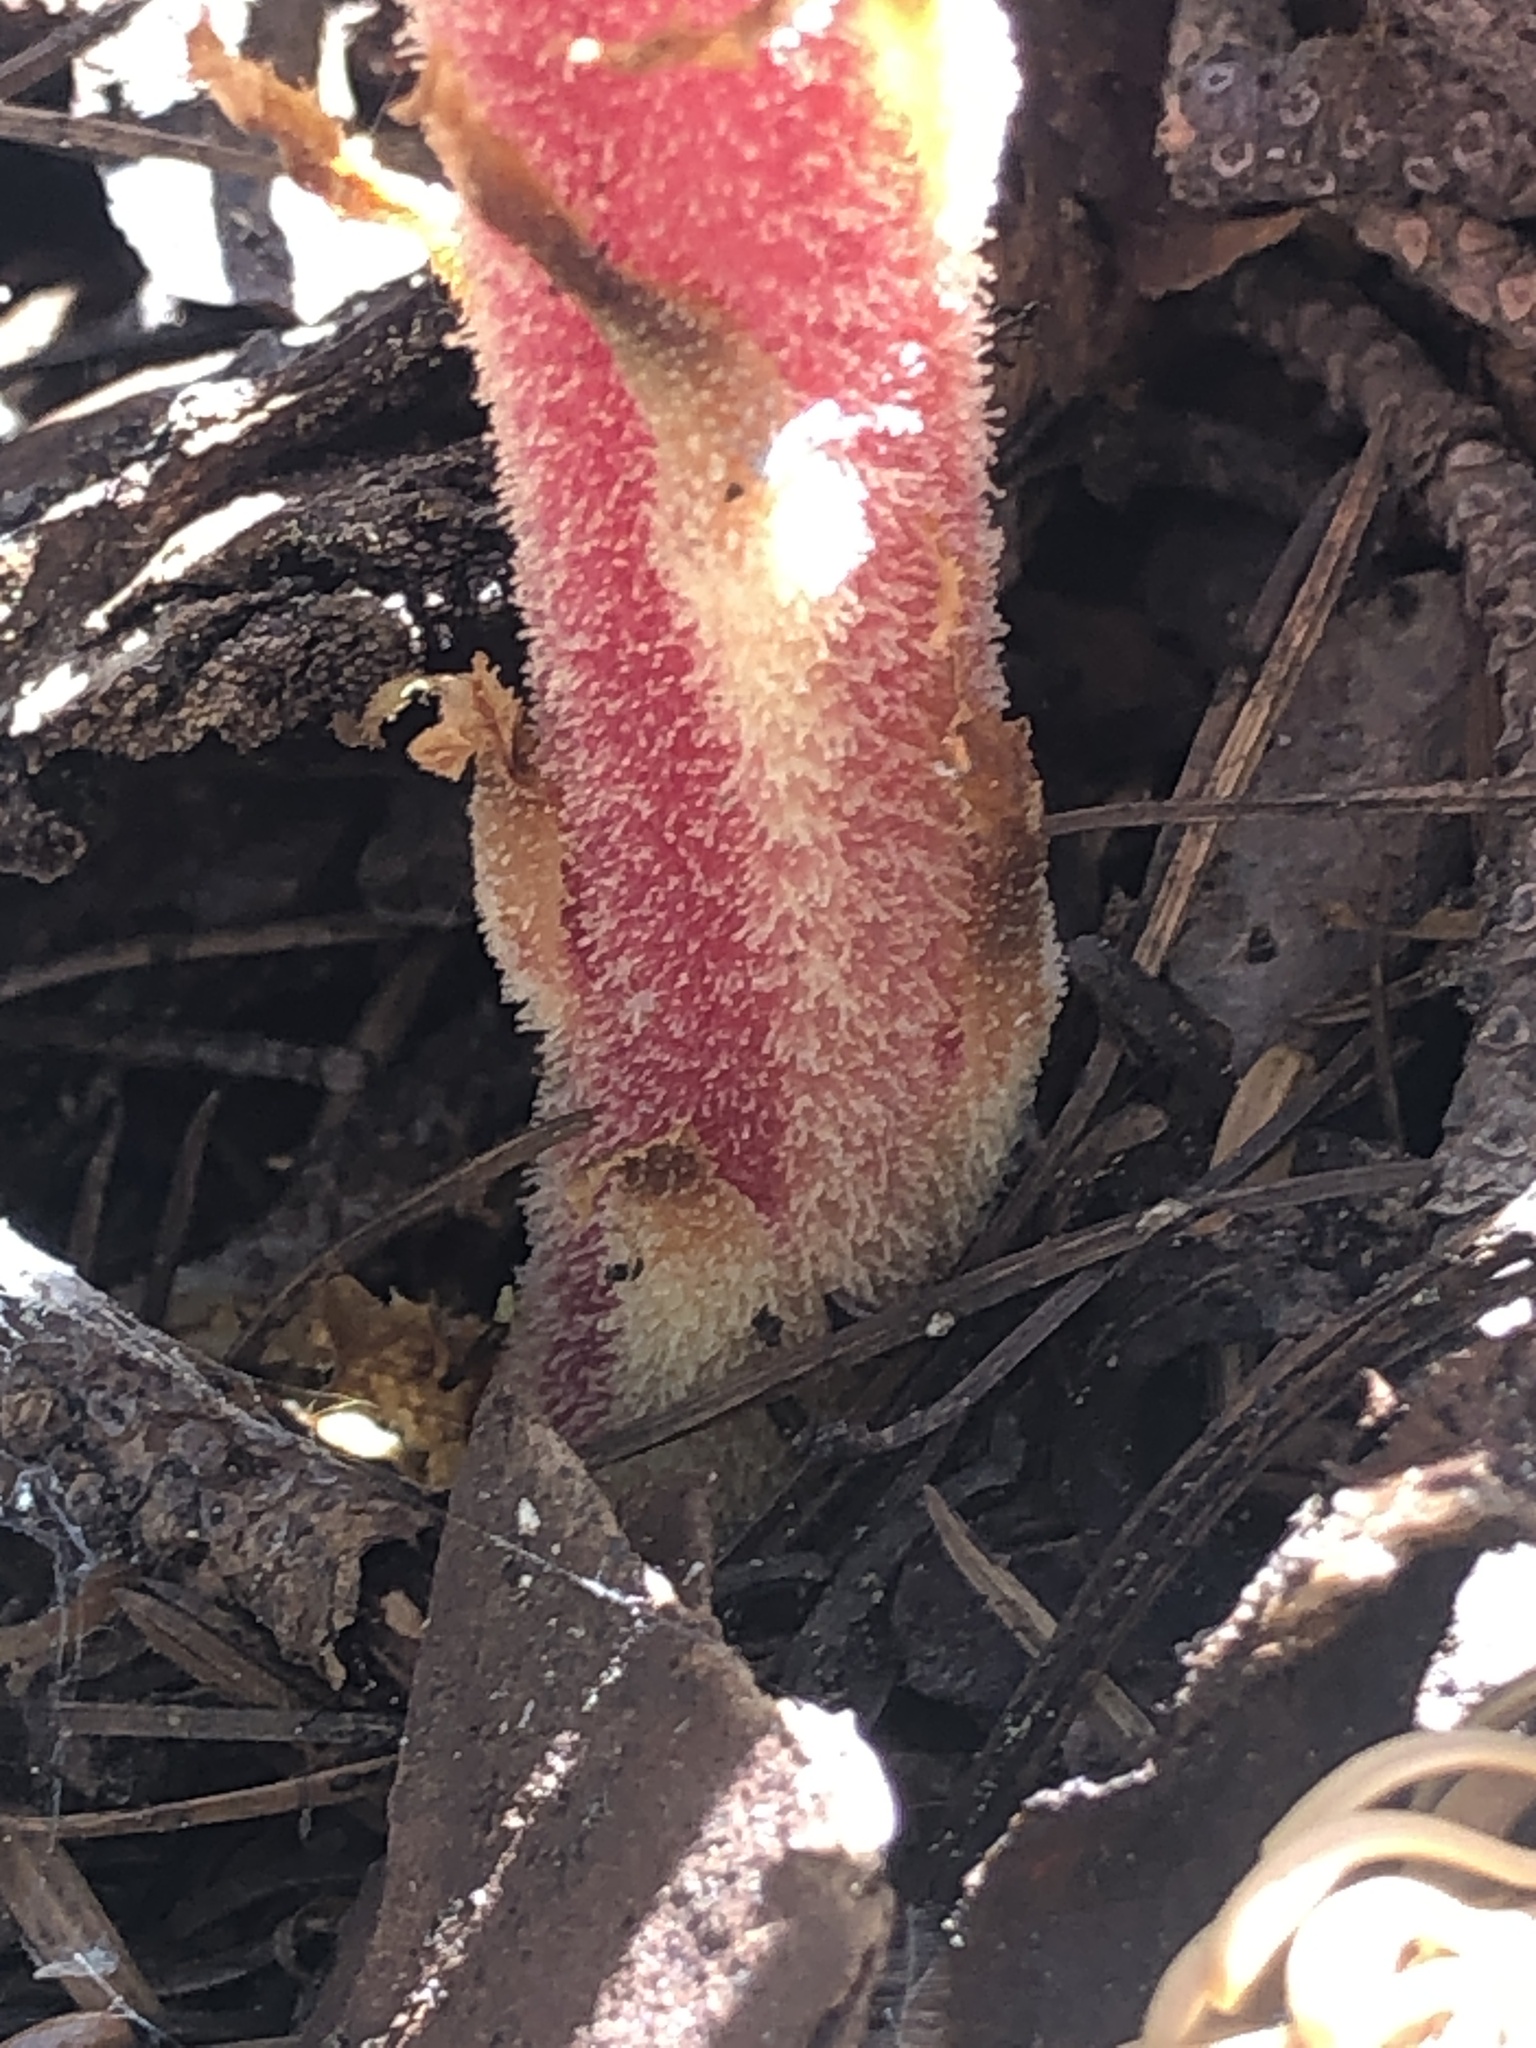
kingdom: Plantae
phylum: Tracheophyta
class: Magnoliopsida
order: Ericales
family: Ericaceae
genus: Pterospora
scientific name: Pterospora andromedea
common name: Giant bird's-nest
